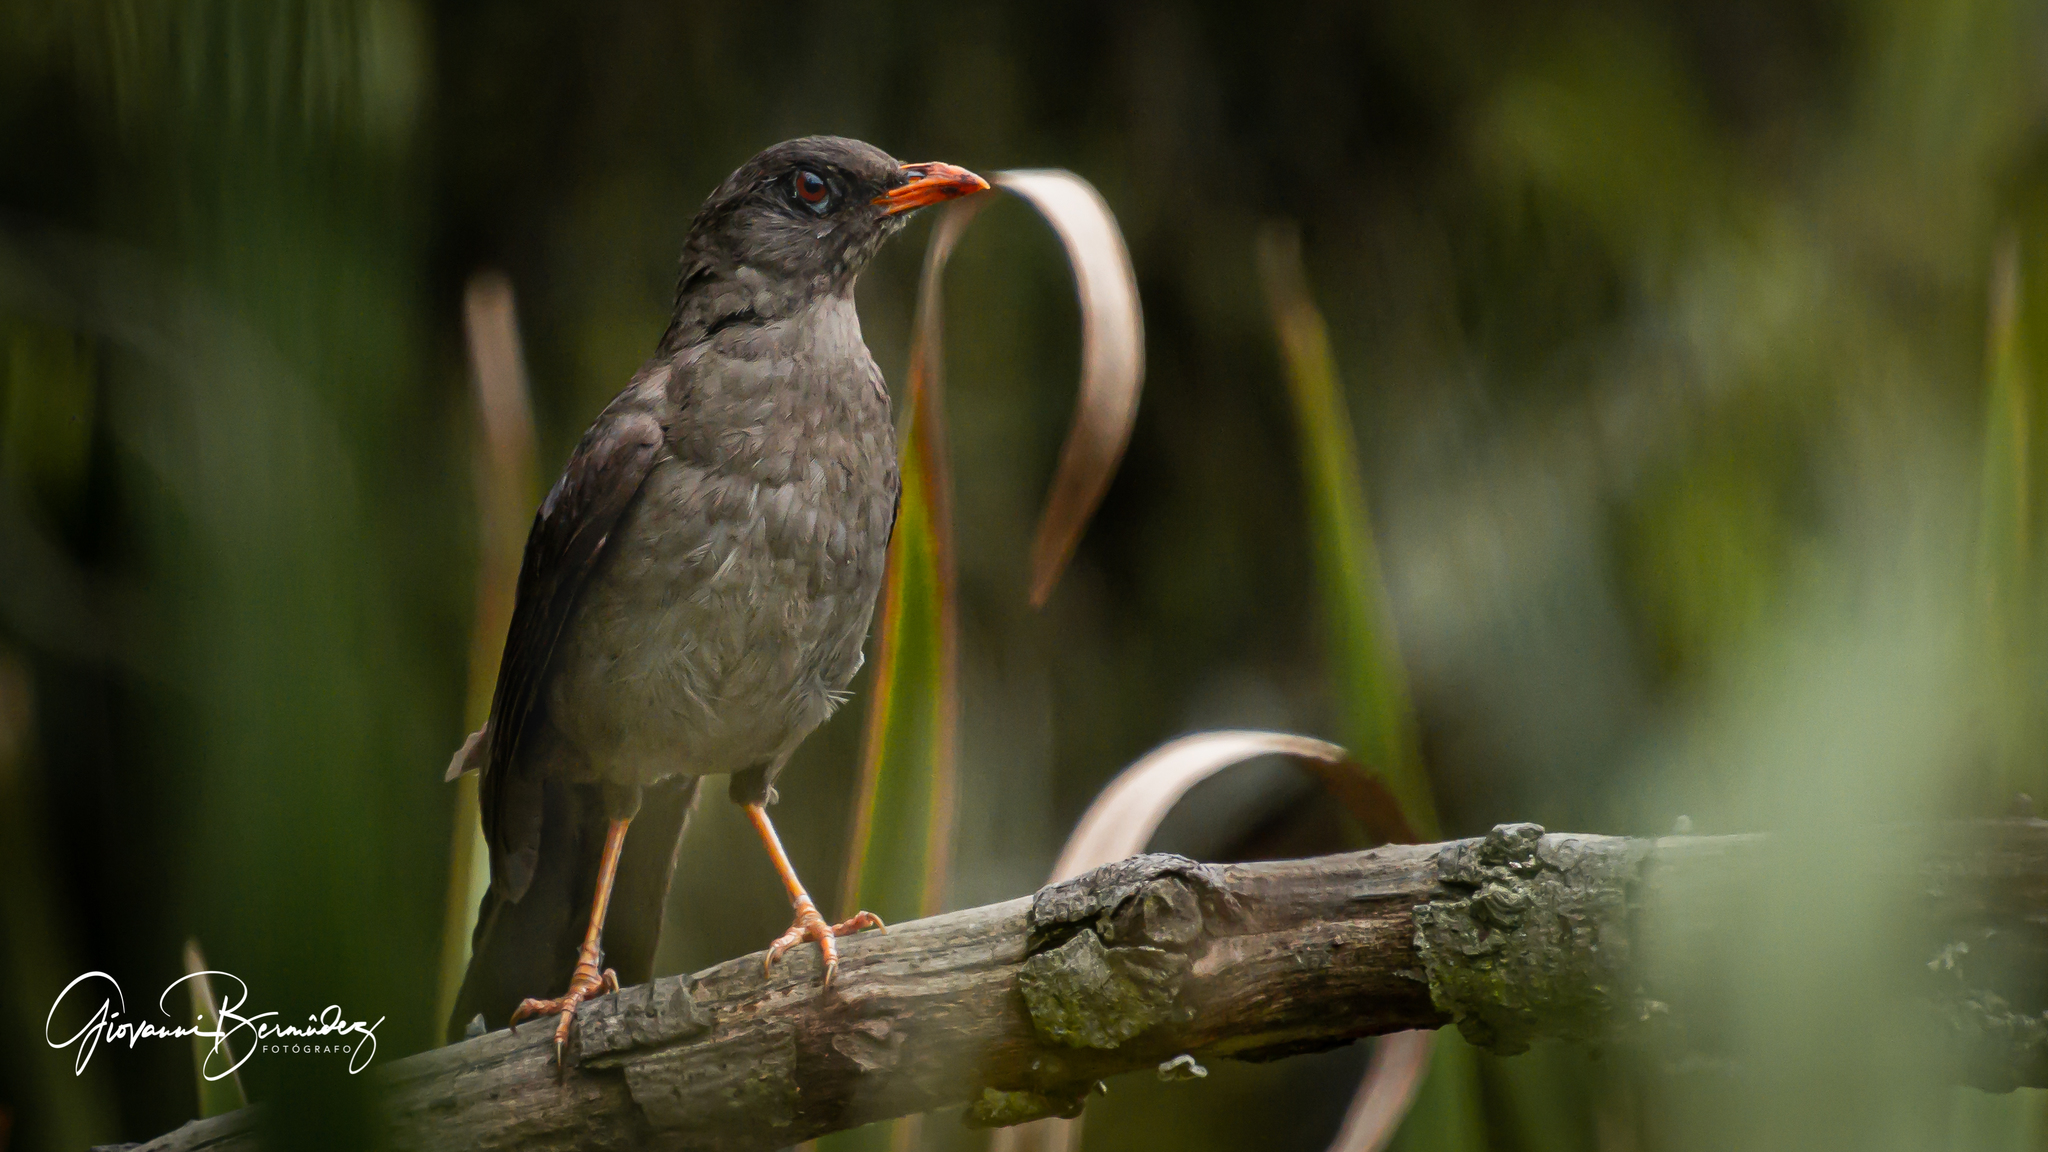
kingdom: Animalia
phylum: Chordata
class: Aves
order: Passeriformes
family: Turdidae
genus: Turdus
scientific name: Turdus fuscater
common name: Great thrush
